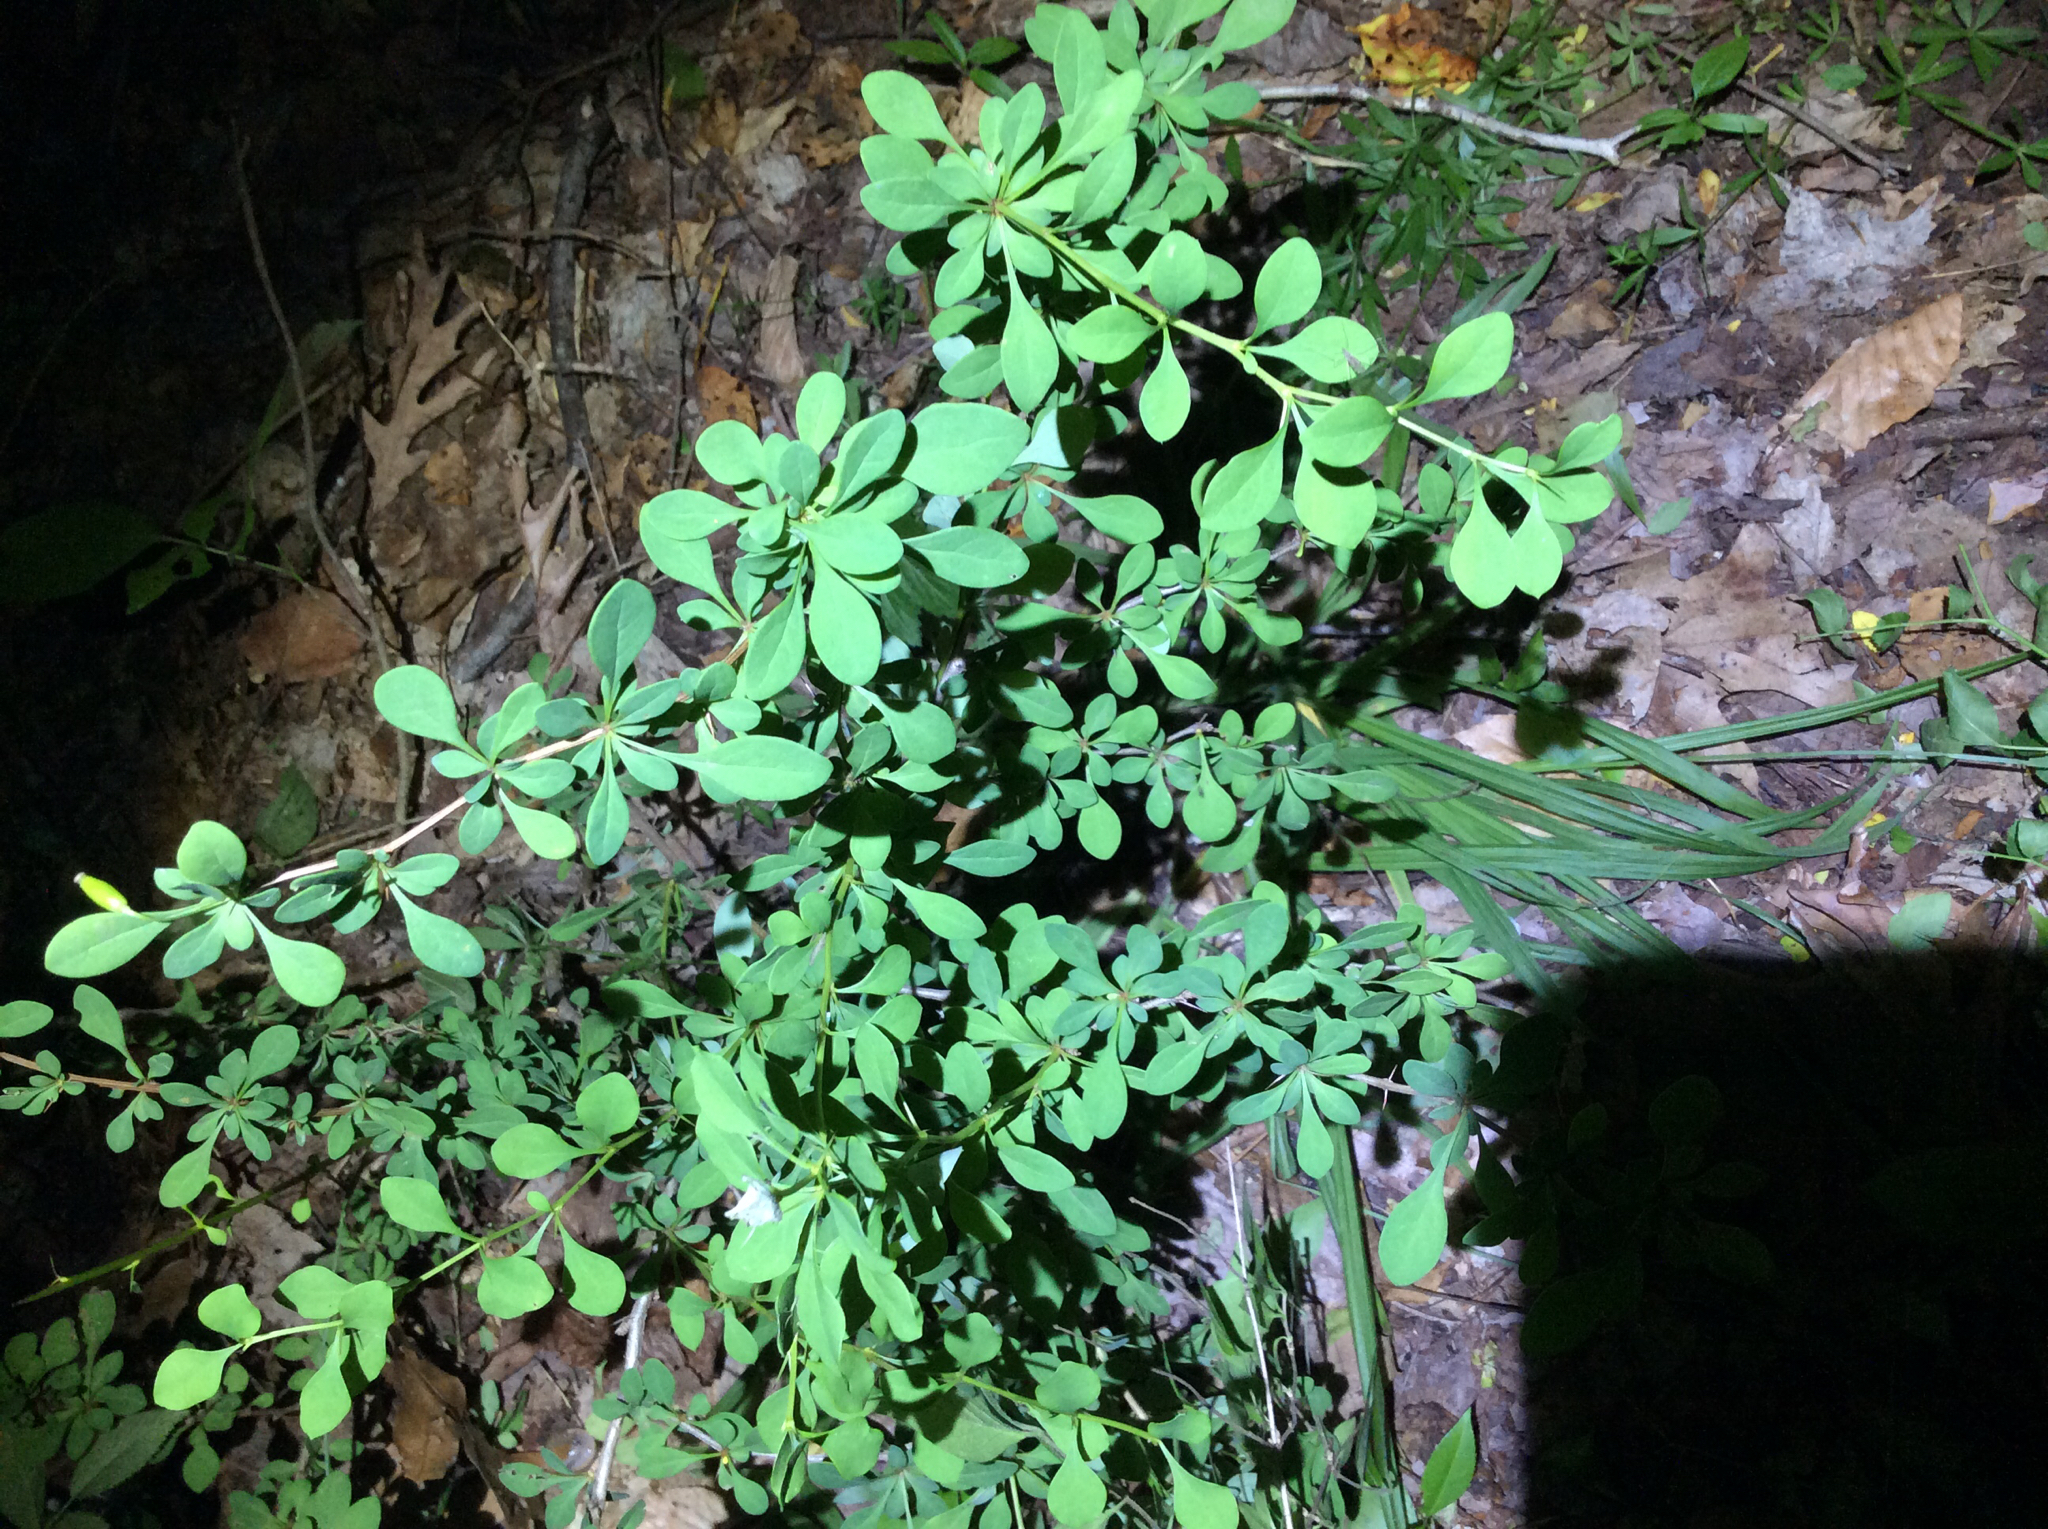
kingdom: Plantae
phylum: Tracheophyta
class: Magnoliopsida
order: Ranunculales
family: Berberidaceae
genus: Berberis
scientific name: Berberis thunbergii
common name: Japanese barberry
